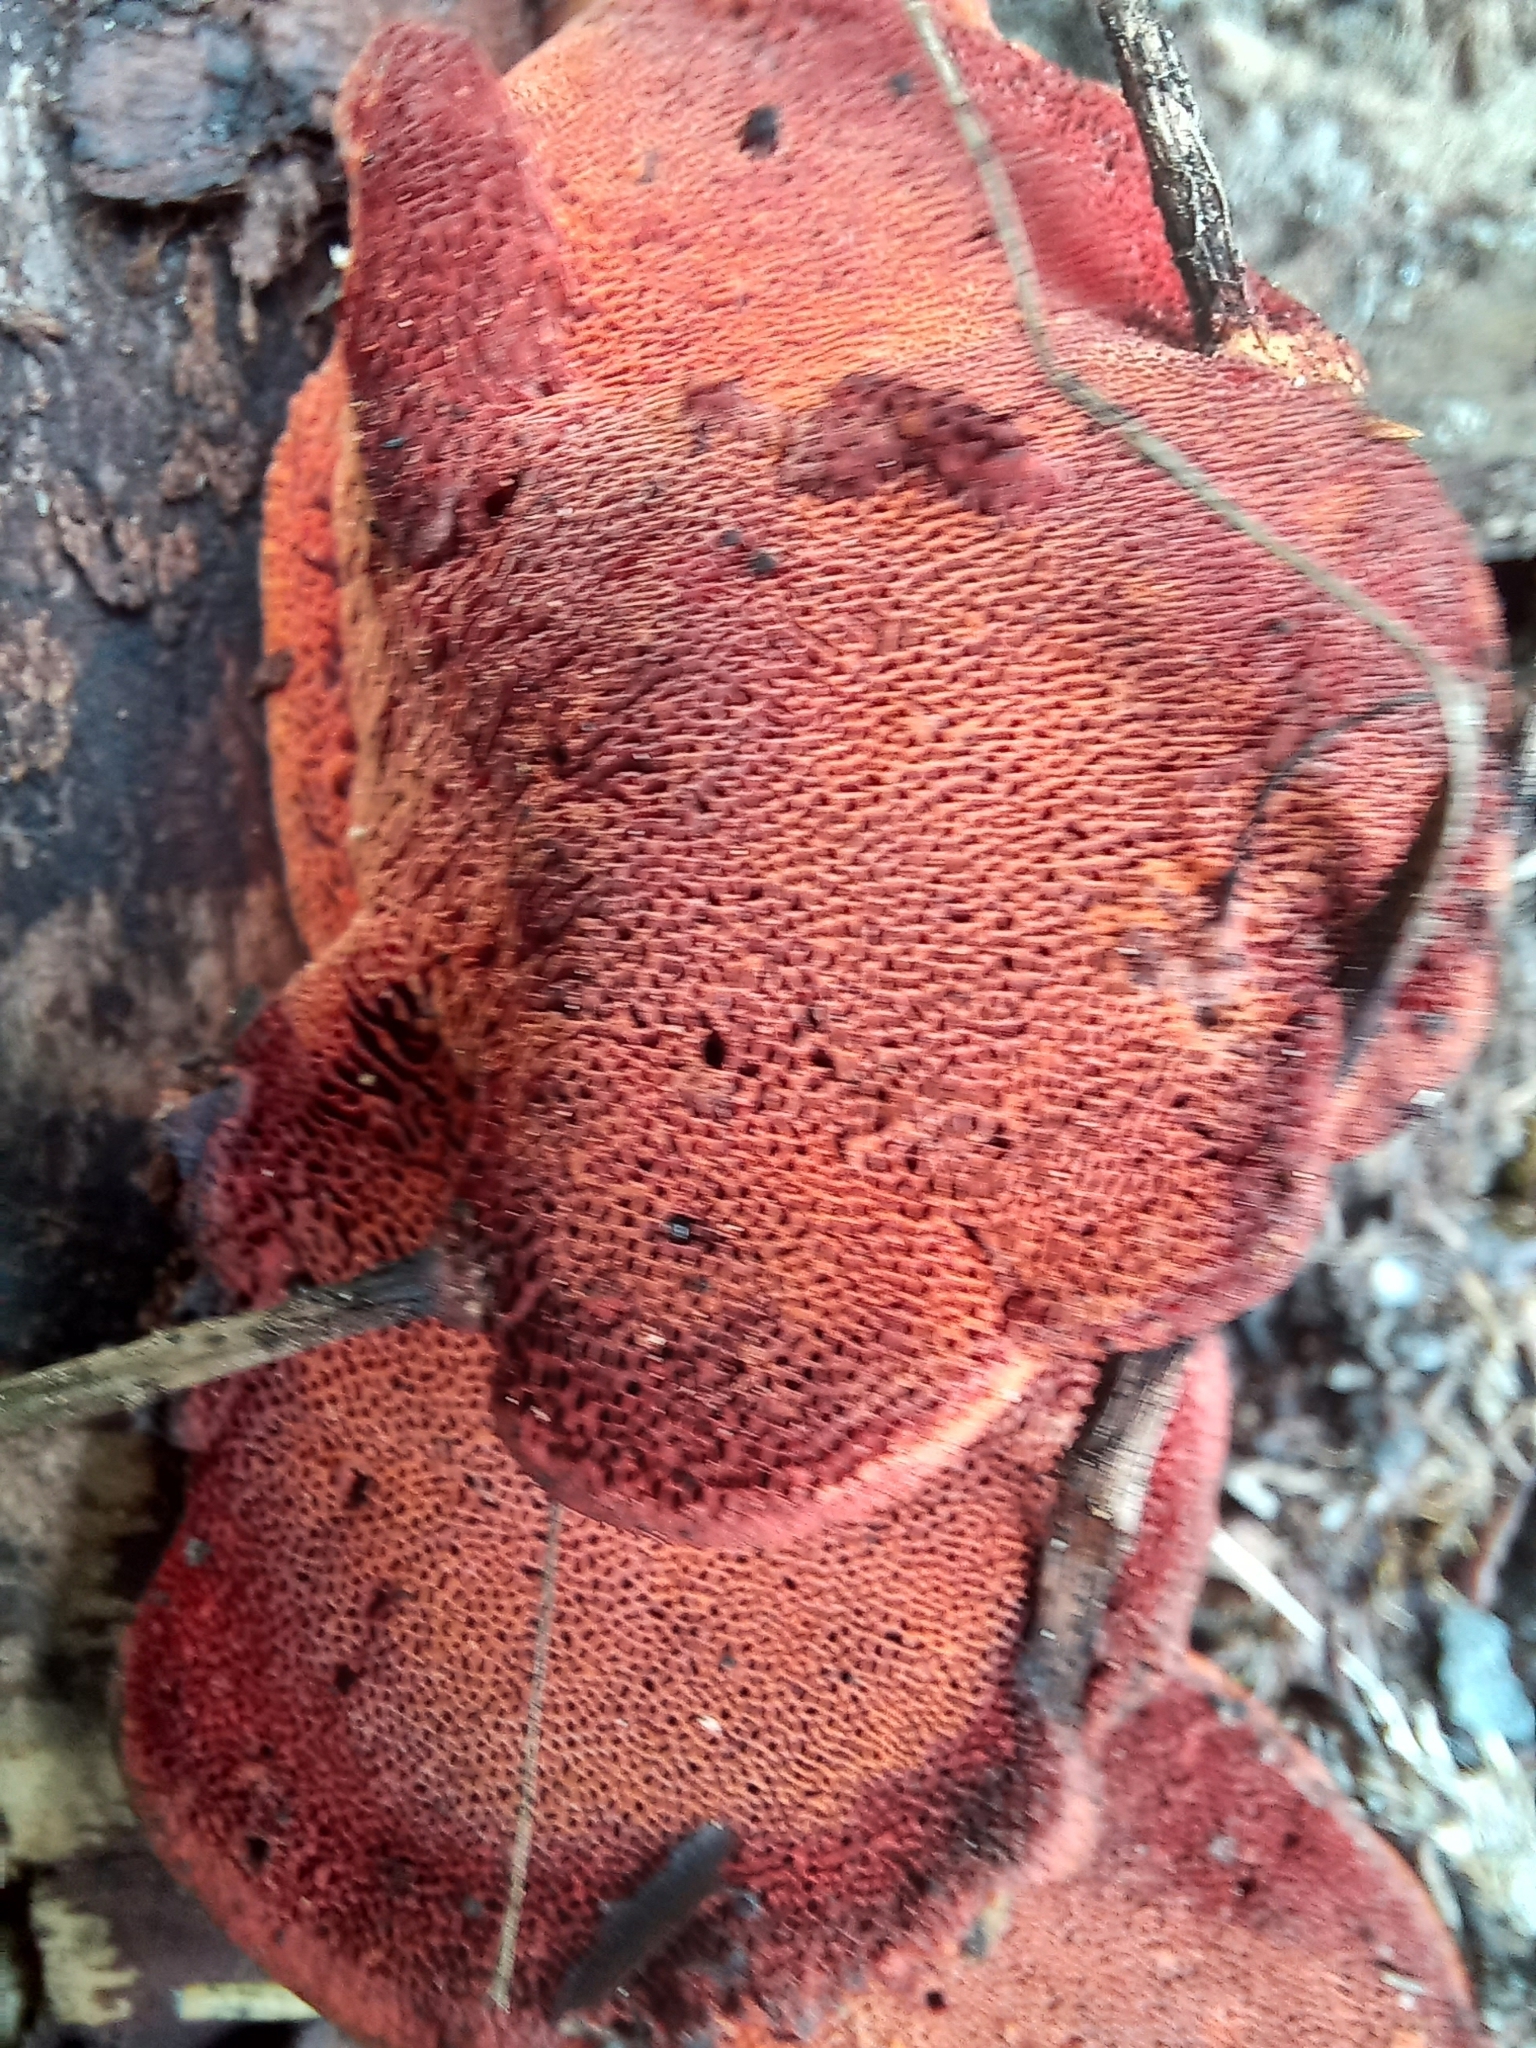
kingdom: Fungi
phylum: Basidiomycota
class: Agaricomycetes
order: Polyporales
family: Polyporaceae
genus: Trametes
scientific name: Trametes cinnabarina
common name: Northern cinnabar polypore
